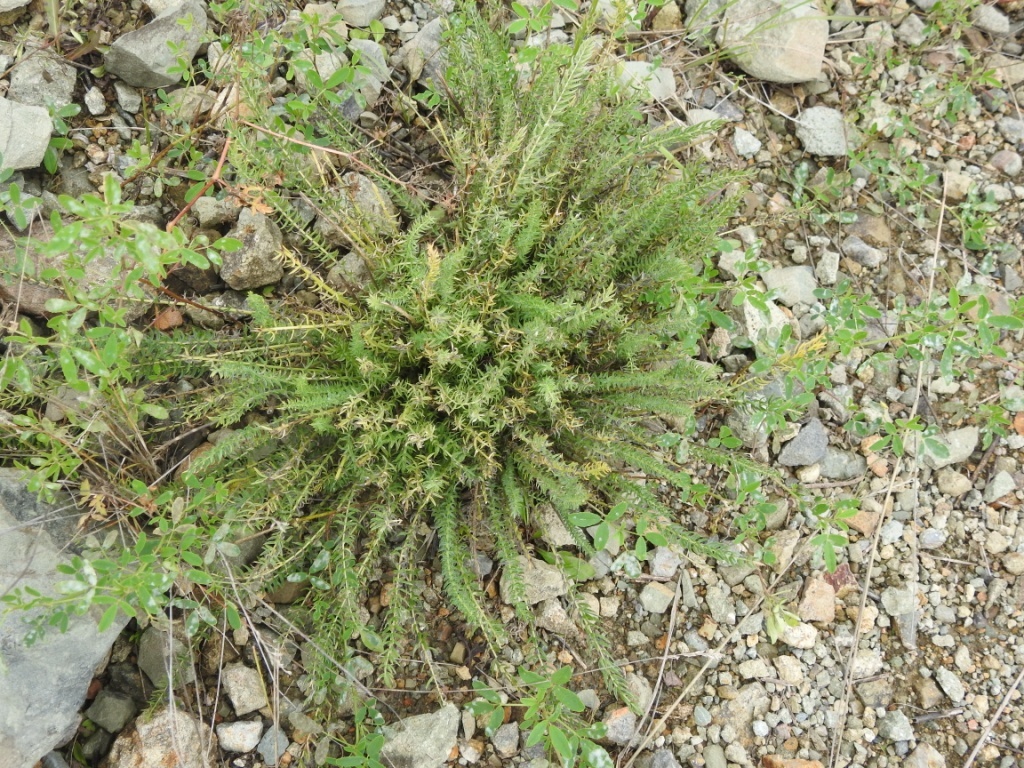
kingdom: Plantae
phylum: Tracheophyta
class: Magnoliopsida
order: Fabales
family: Fabaceae
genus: Oxytropis
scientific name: Oxytropis myriophylla
